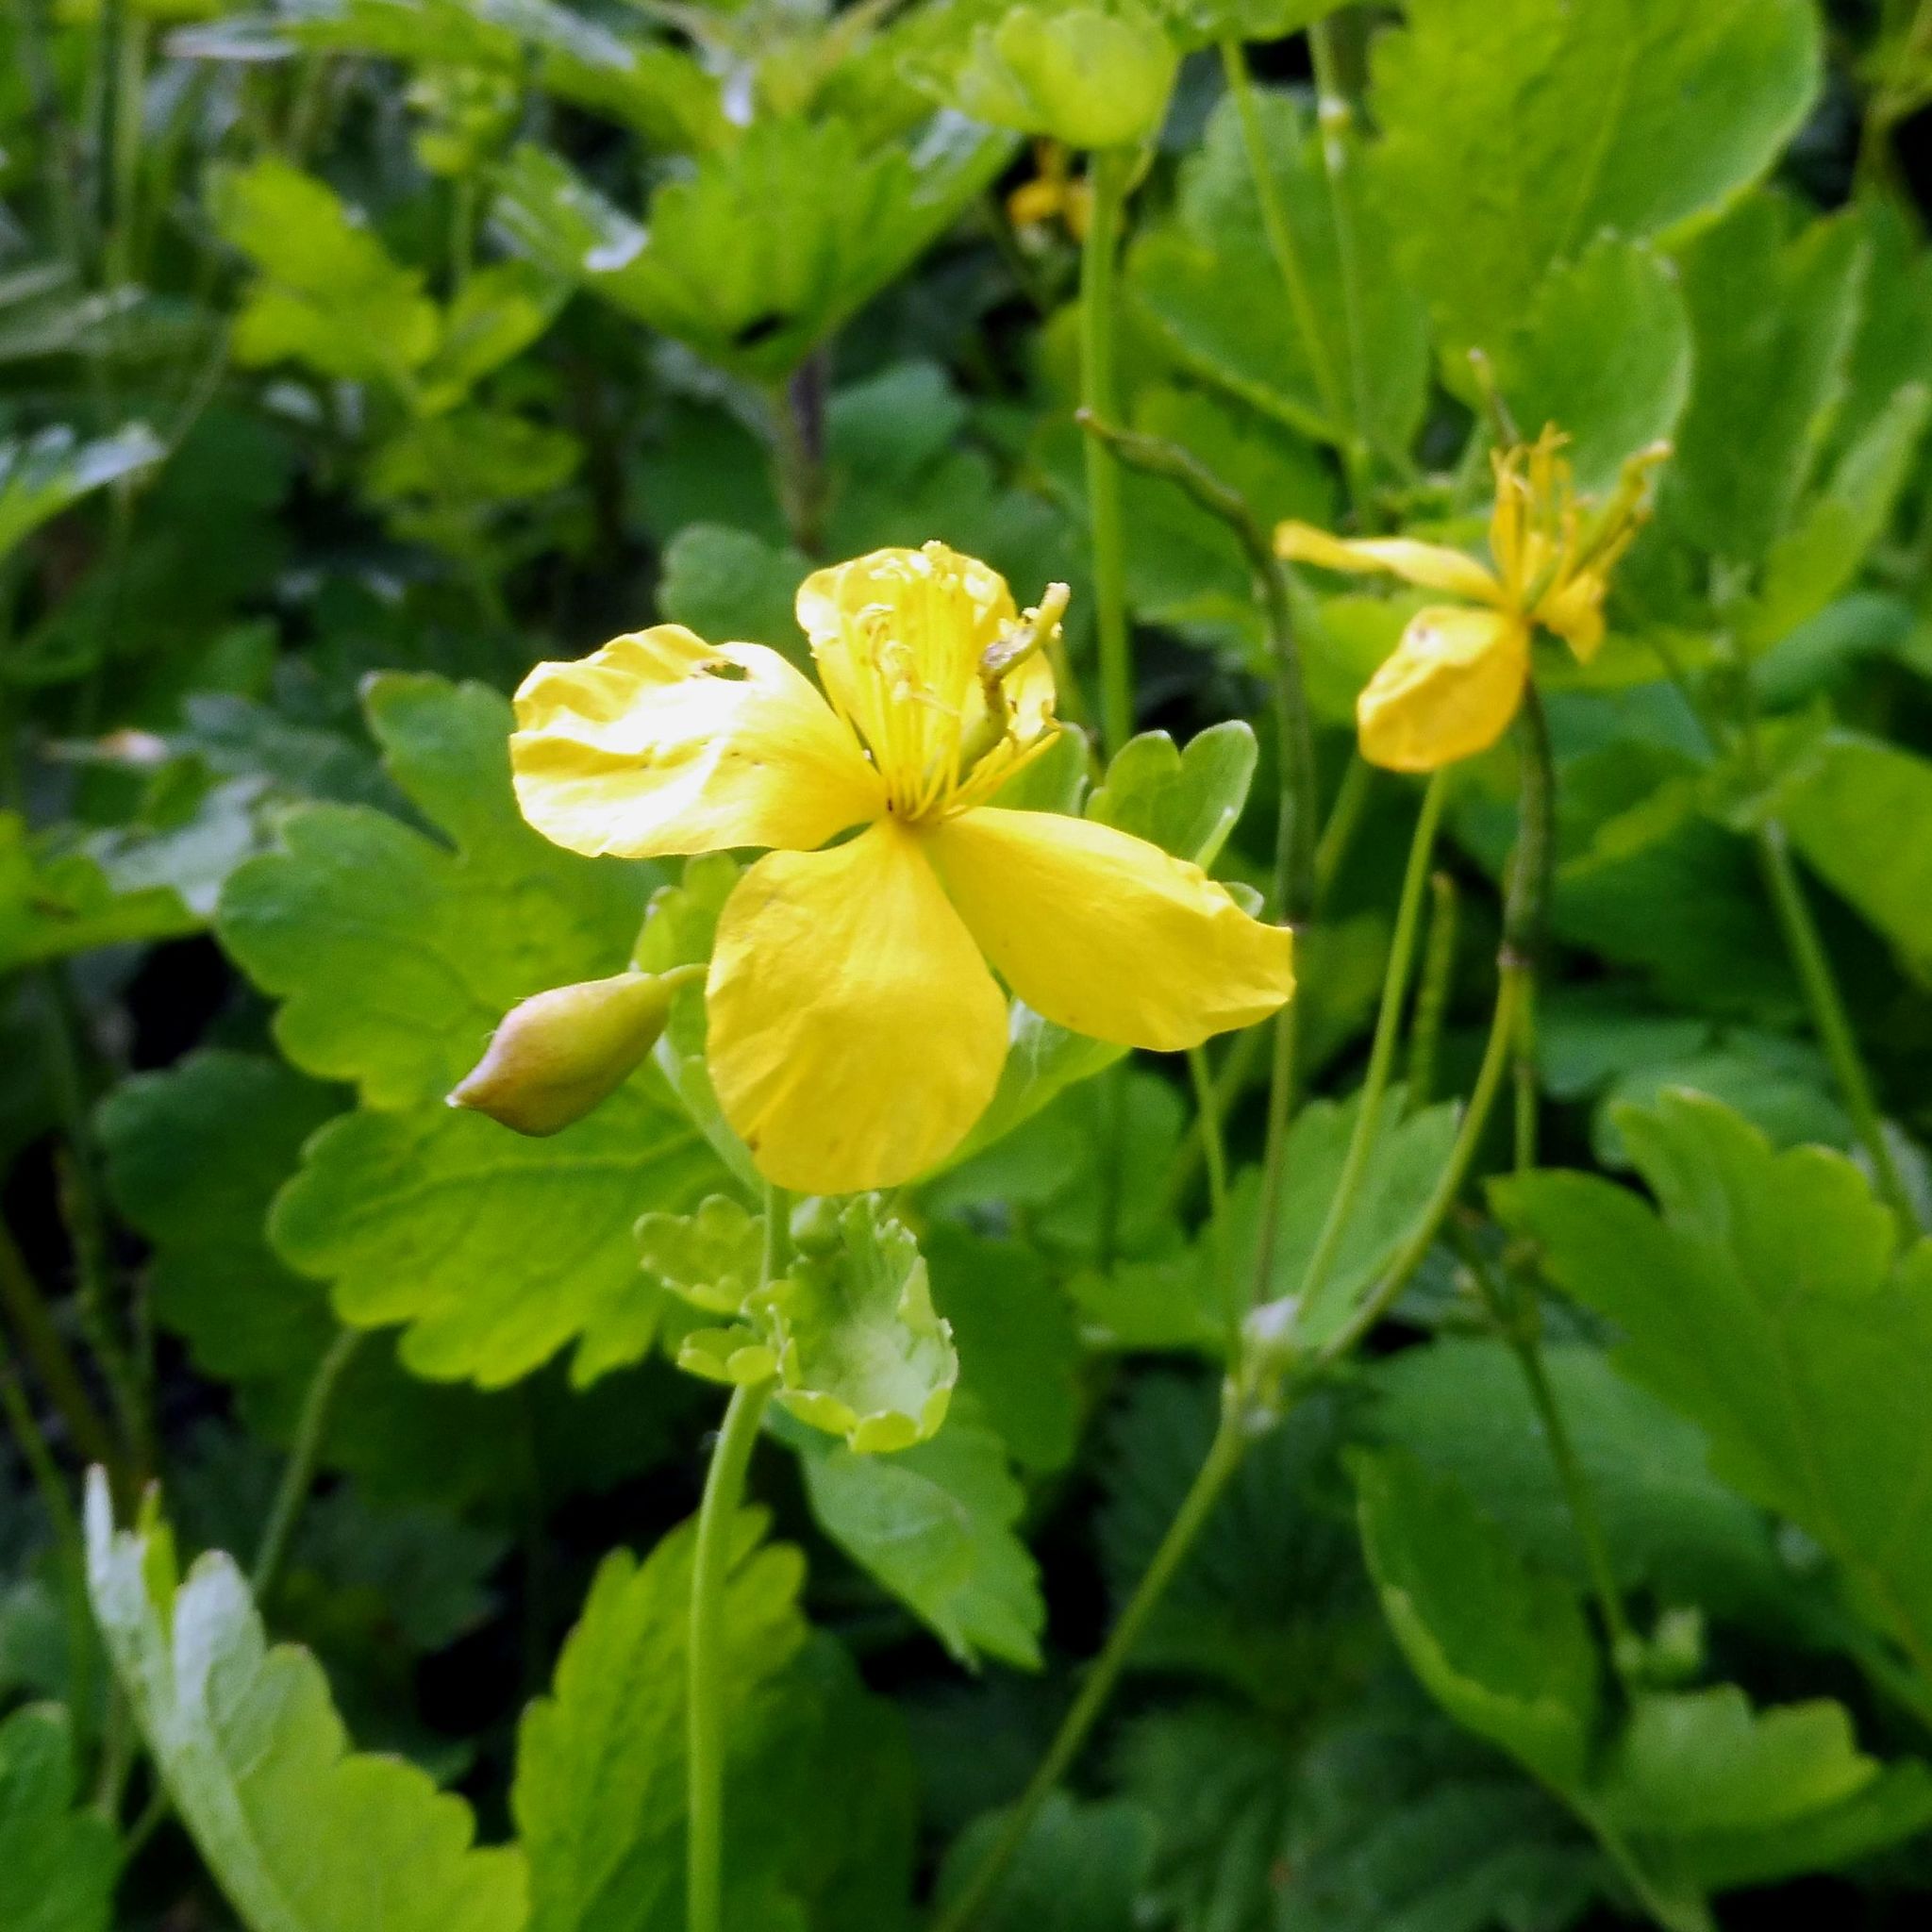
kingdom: Plantae
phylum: Tracheophyta
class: Magnoliopsida
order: Ranunculales
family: Papaveraceae
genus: Chelidonium
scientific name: Chelidonium majus
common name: Greater celandine
